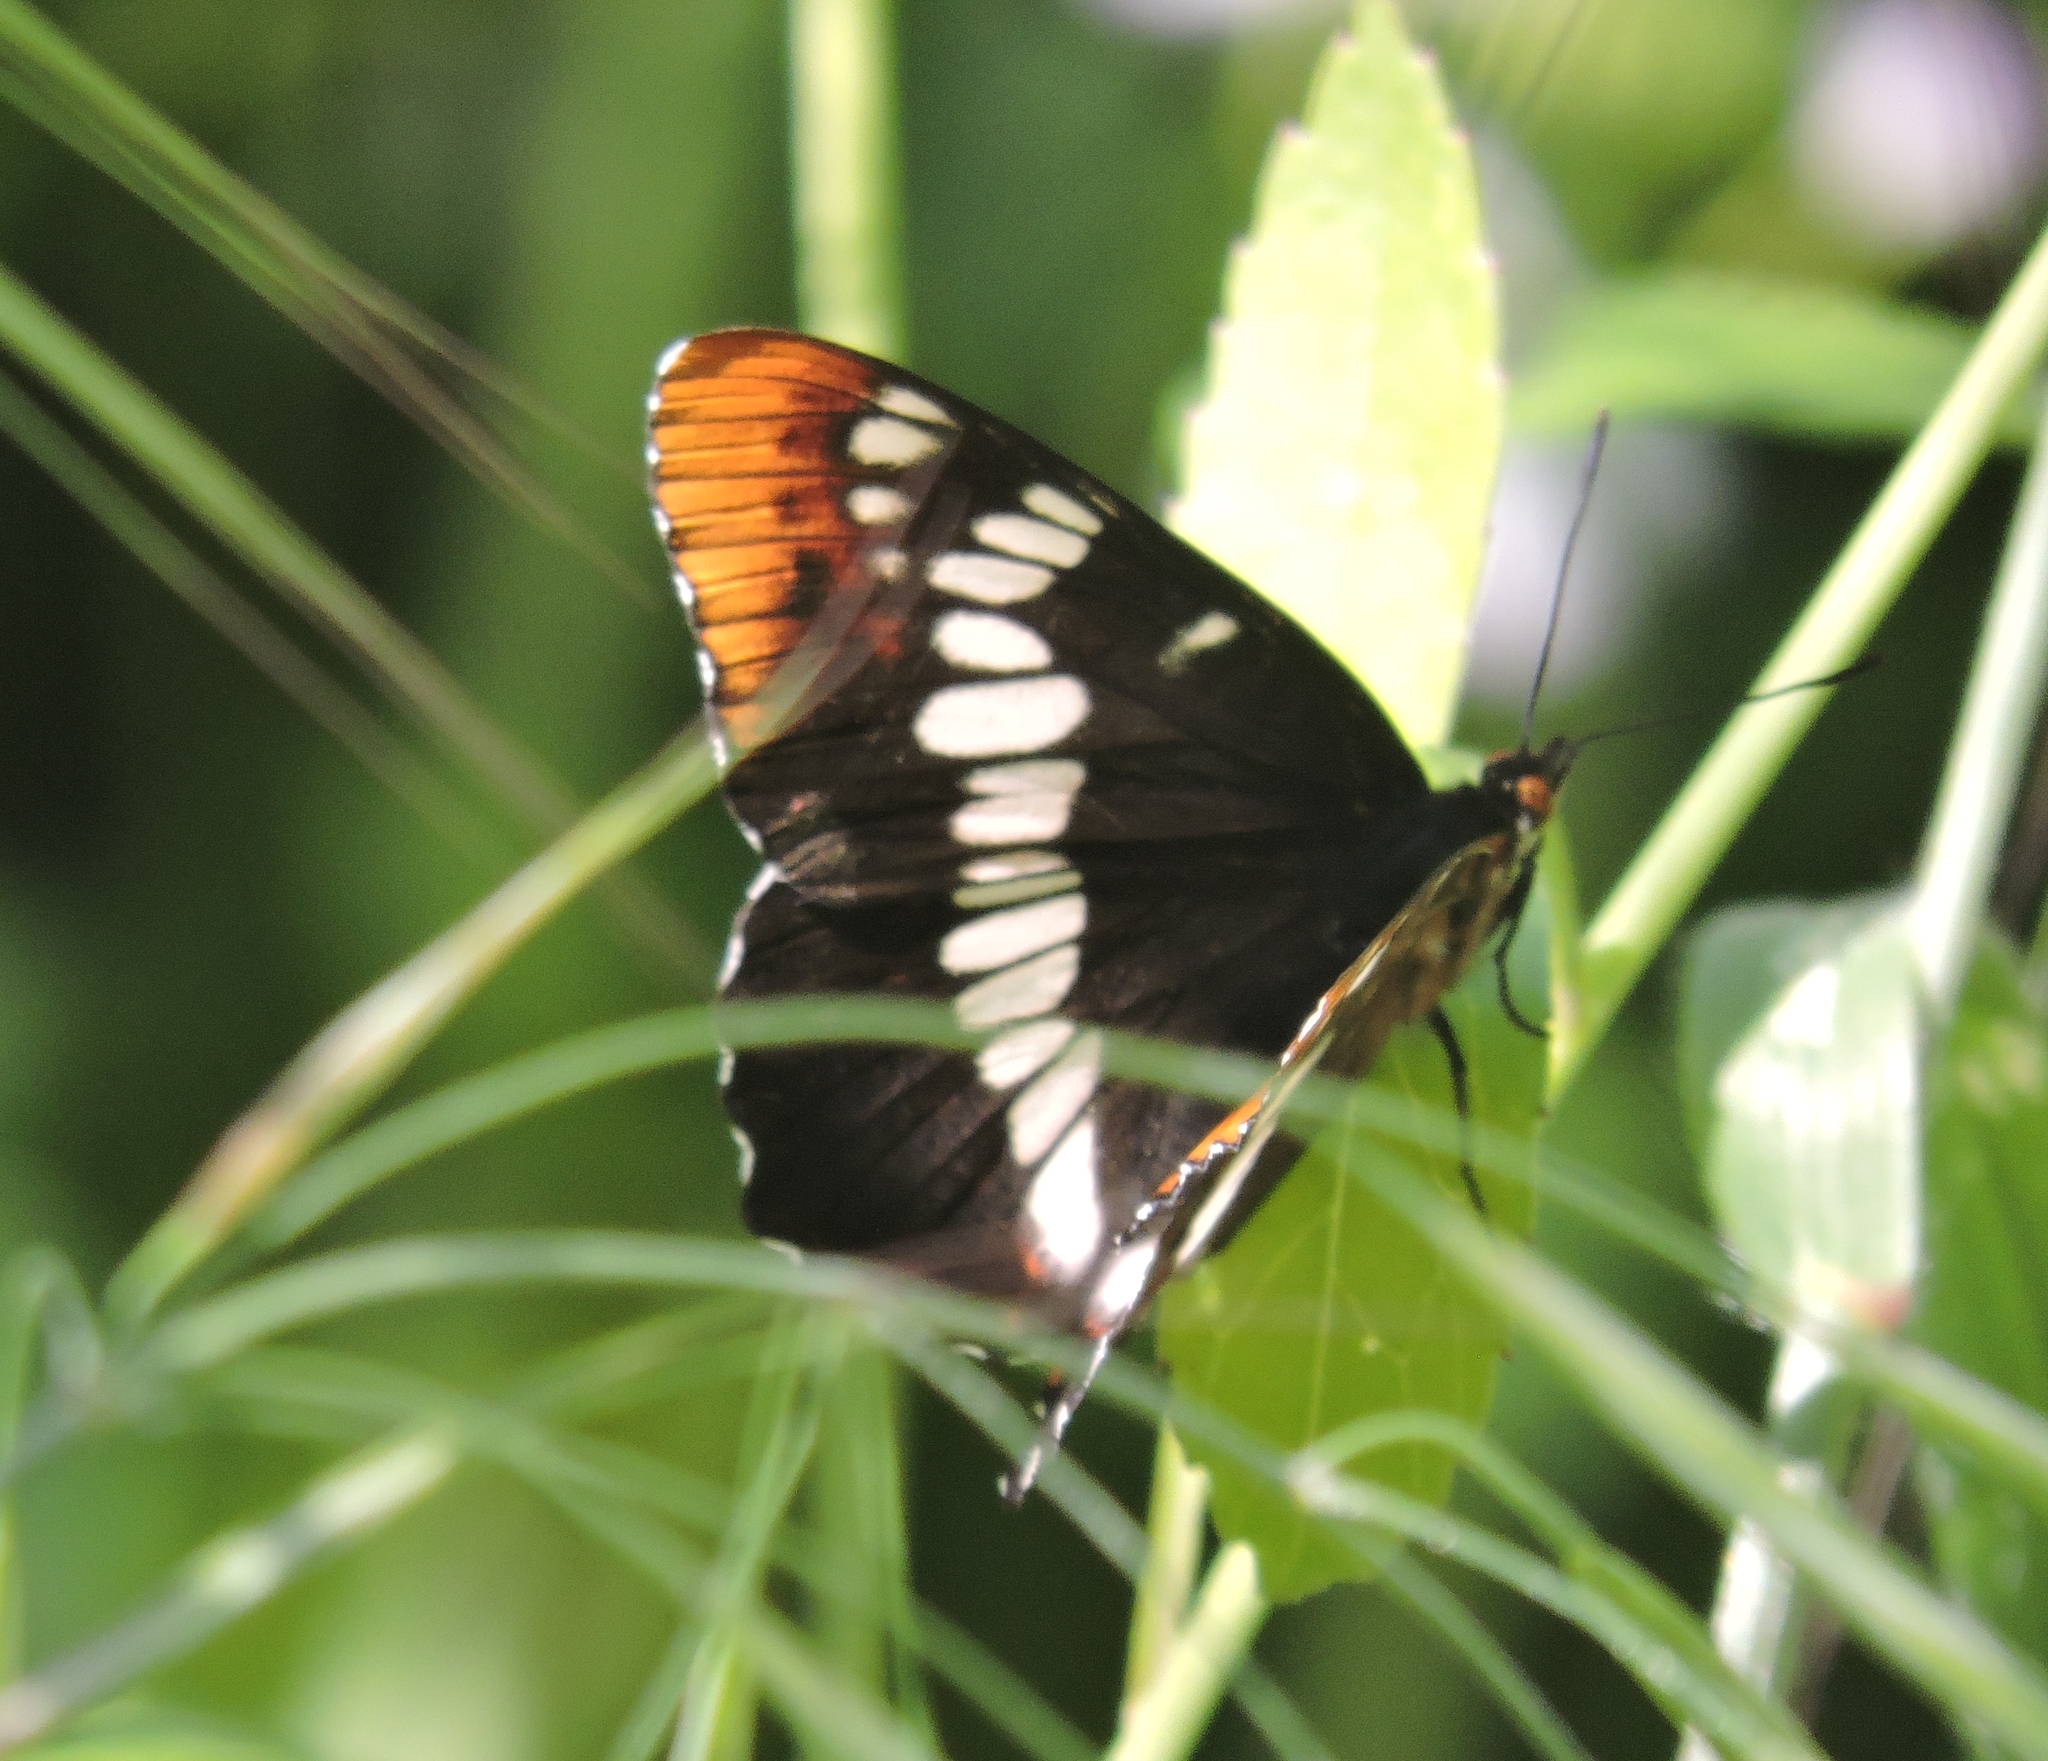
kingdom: Animalia
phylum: Arthropoda
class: Insecta
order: Lepidoptera
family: Nymphalidae
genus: Limenitis
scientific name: Limenitis lorquini
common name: Lorquin's admiral
